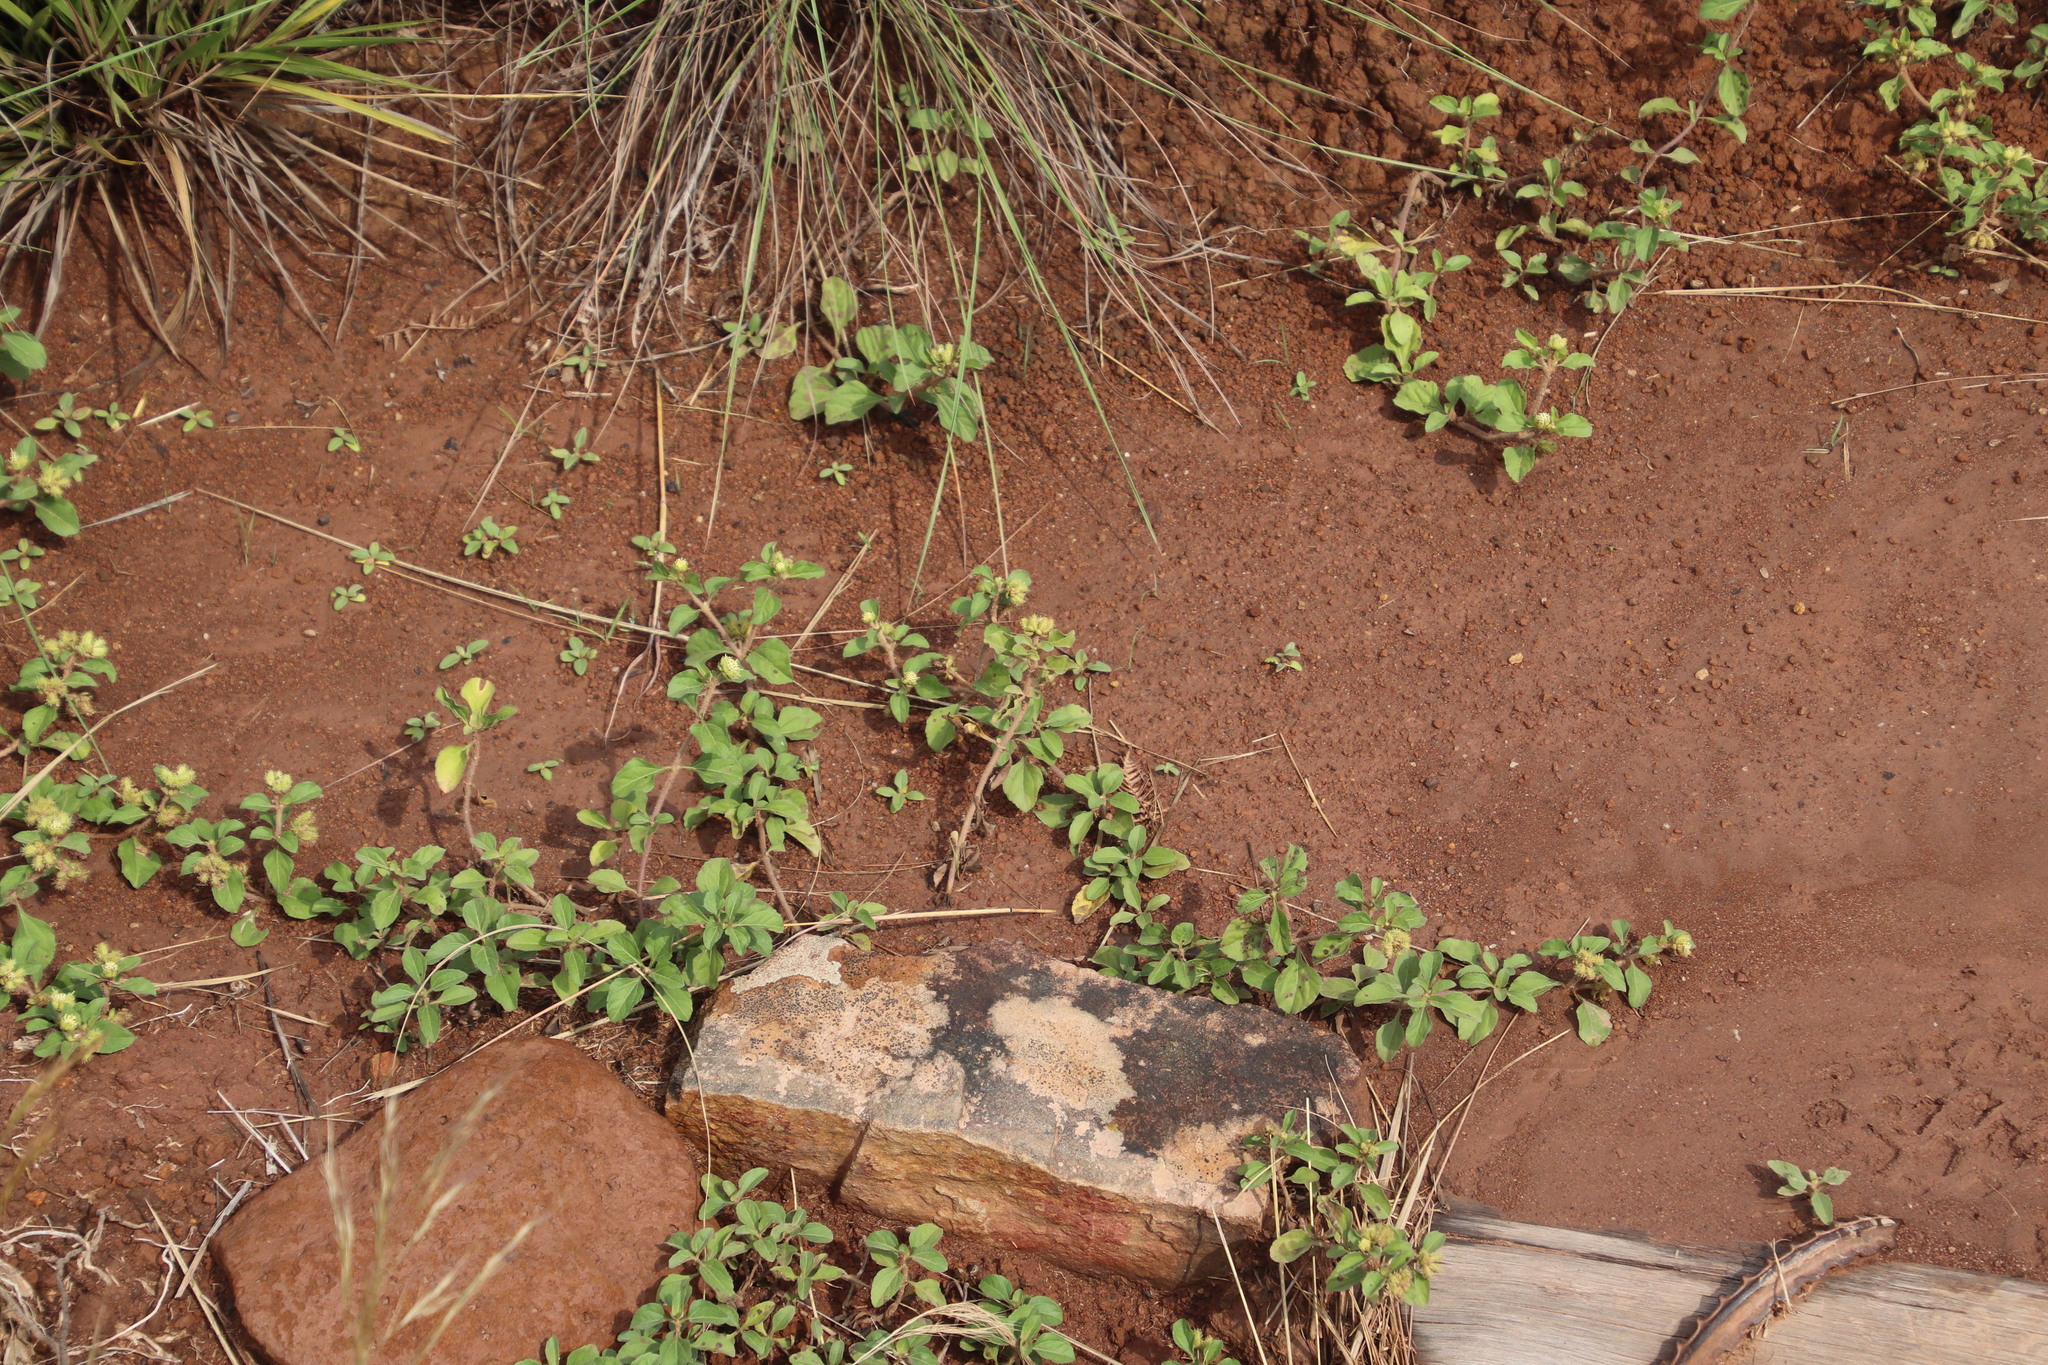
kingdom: Plantae
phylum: Tracheophyta
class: Magnoliopsida
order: Asterales
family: Asteraceae
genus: Acanthospermum
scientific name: Acanthospermum australe
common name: Paraguayan starbur
